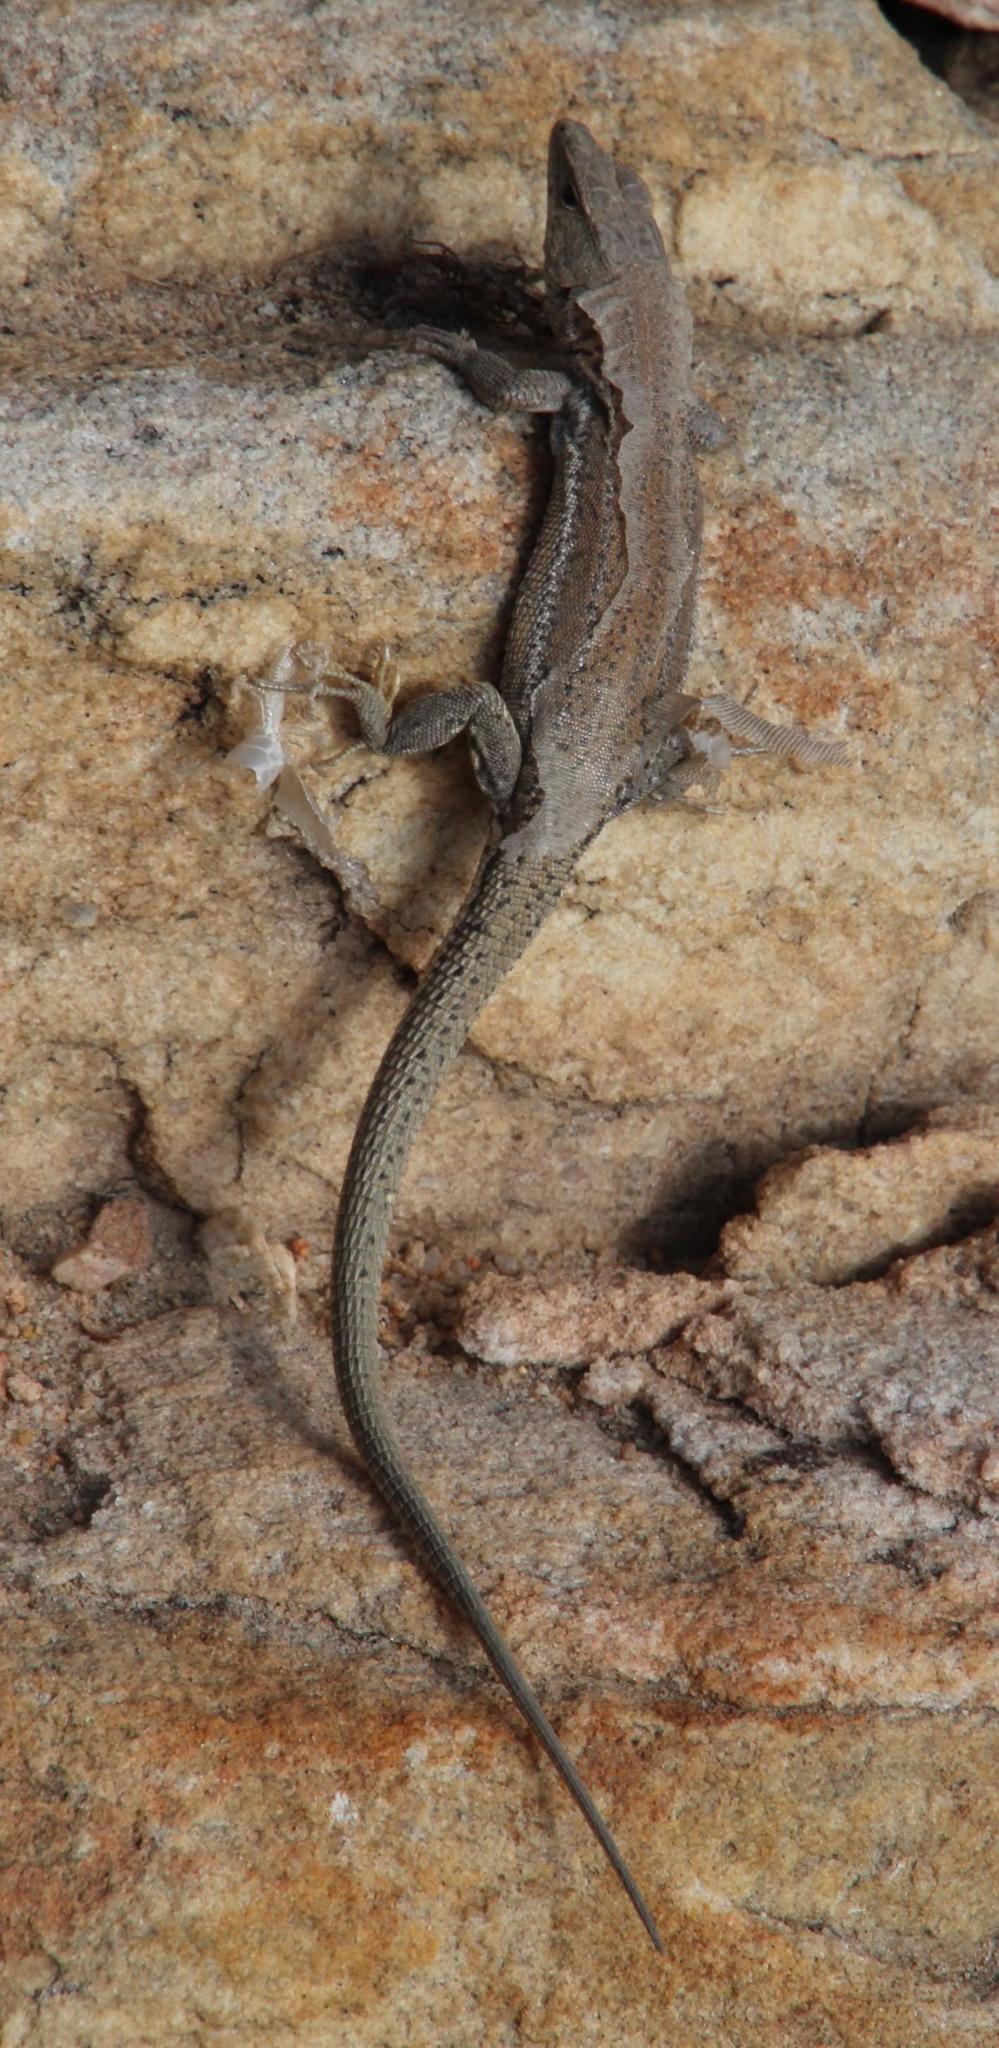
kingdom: Animalia
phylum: Chordata
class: Squamata
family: Lacertidae
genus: Pedioplanis
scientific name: Pedioplanis burchelli
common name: Burchell's sand lizard
